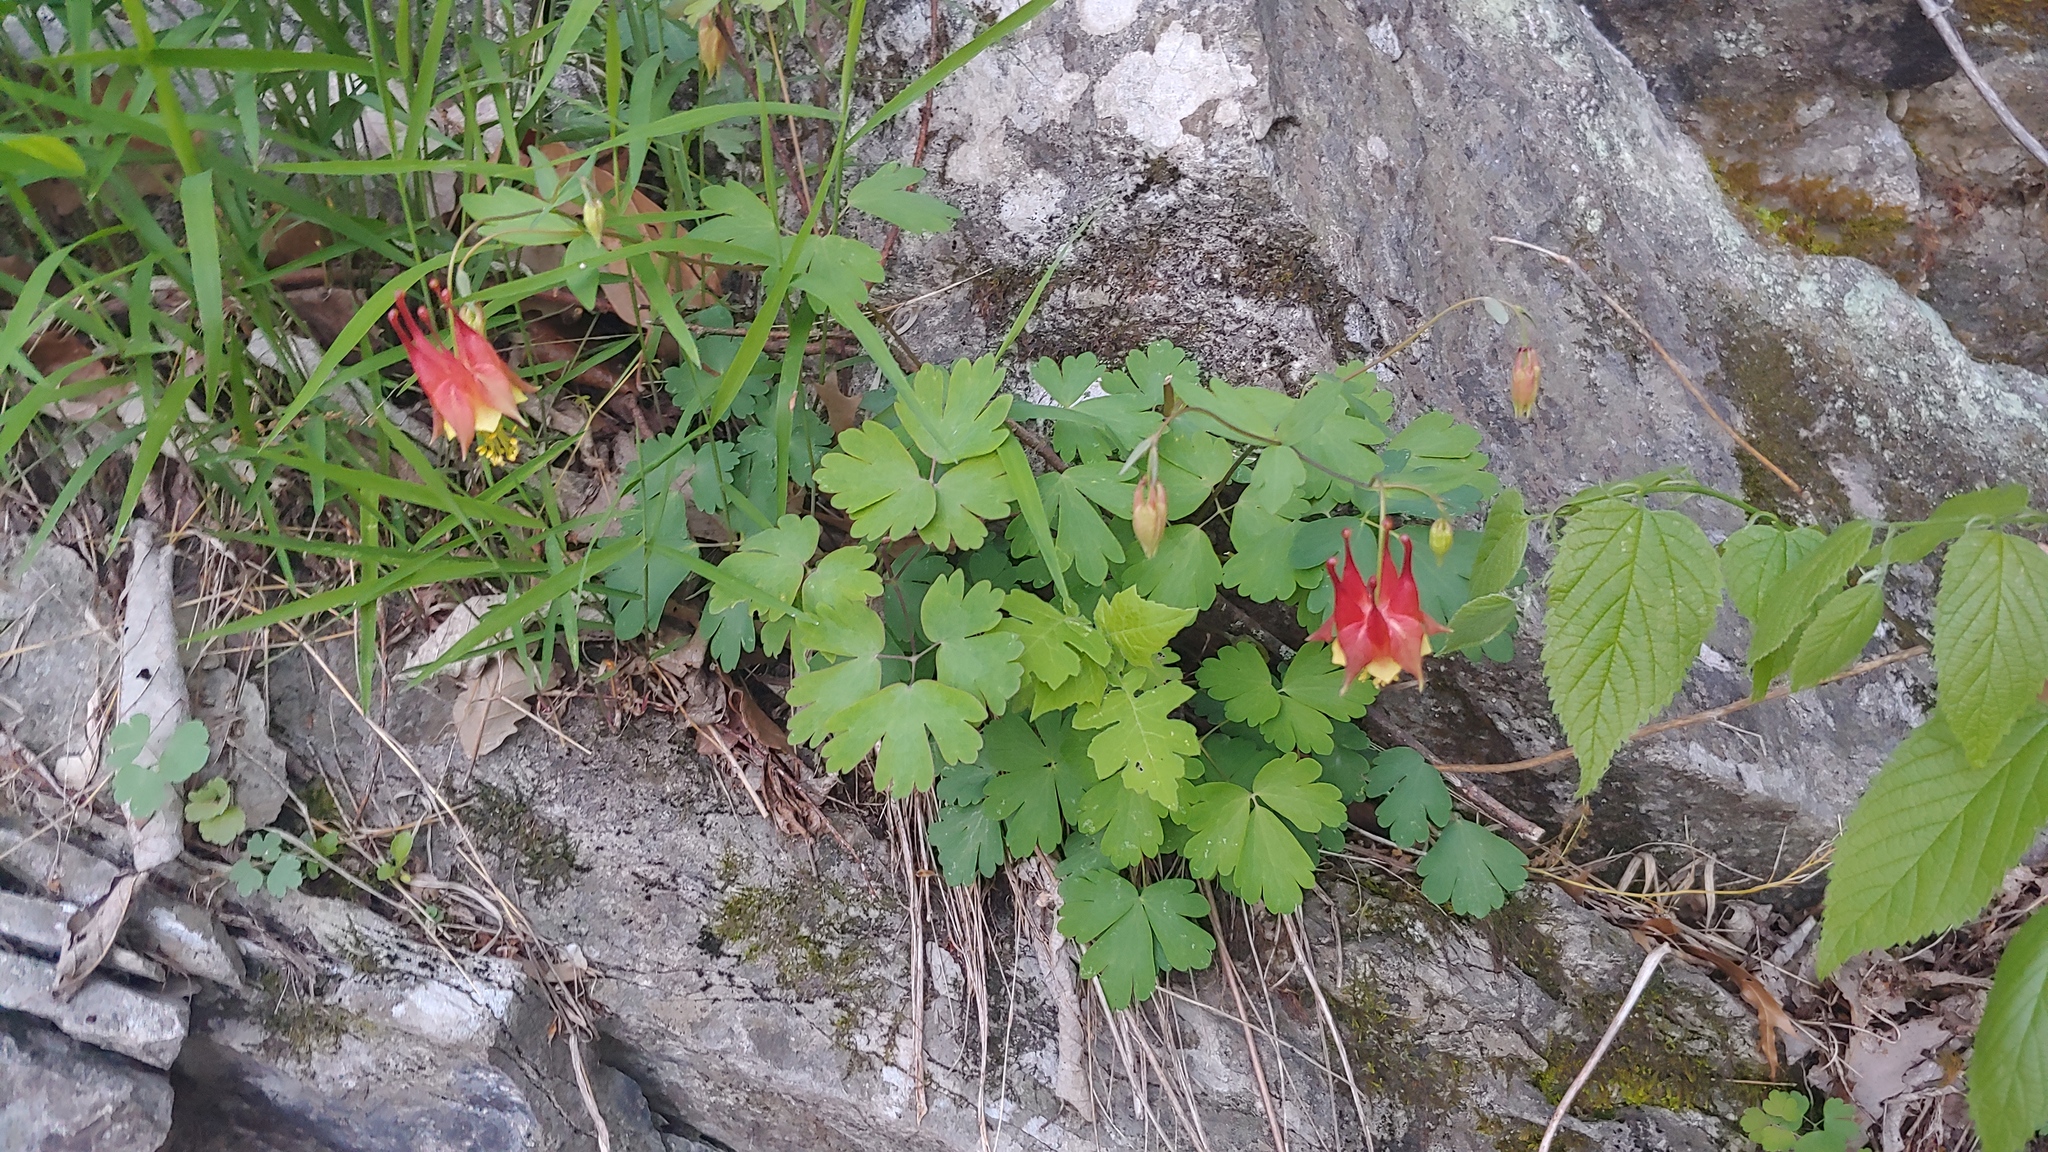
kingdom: Plantae
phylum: Tracheophyta
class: Magnoliopsida
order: Ranunculales
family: Ranunculaceae
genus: Aquilegia
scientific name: Aquilegia canadensis
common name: American columbine
